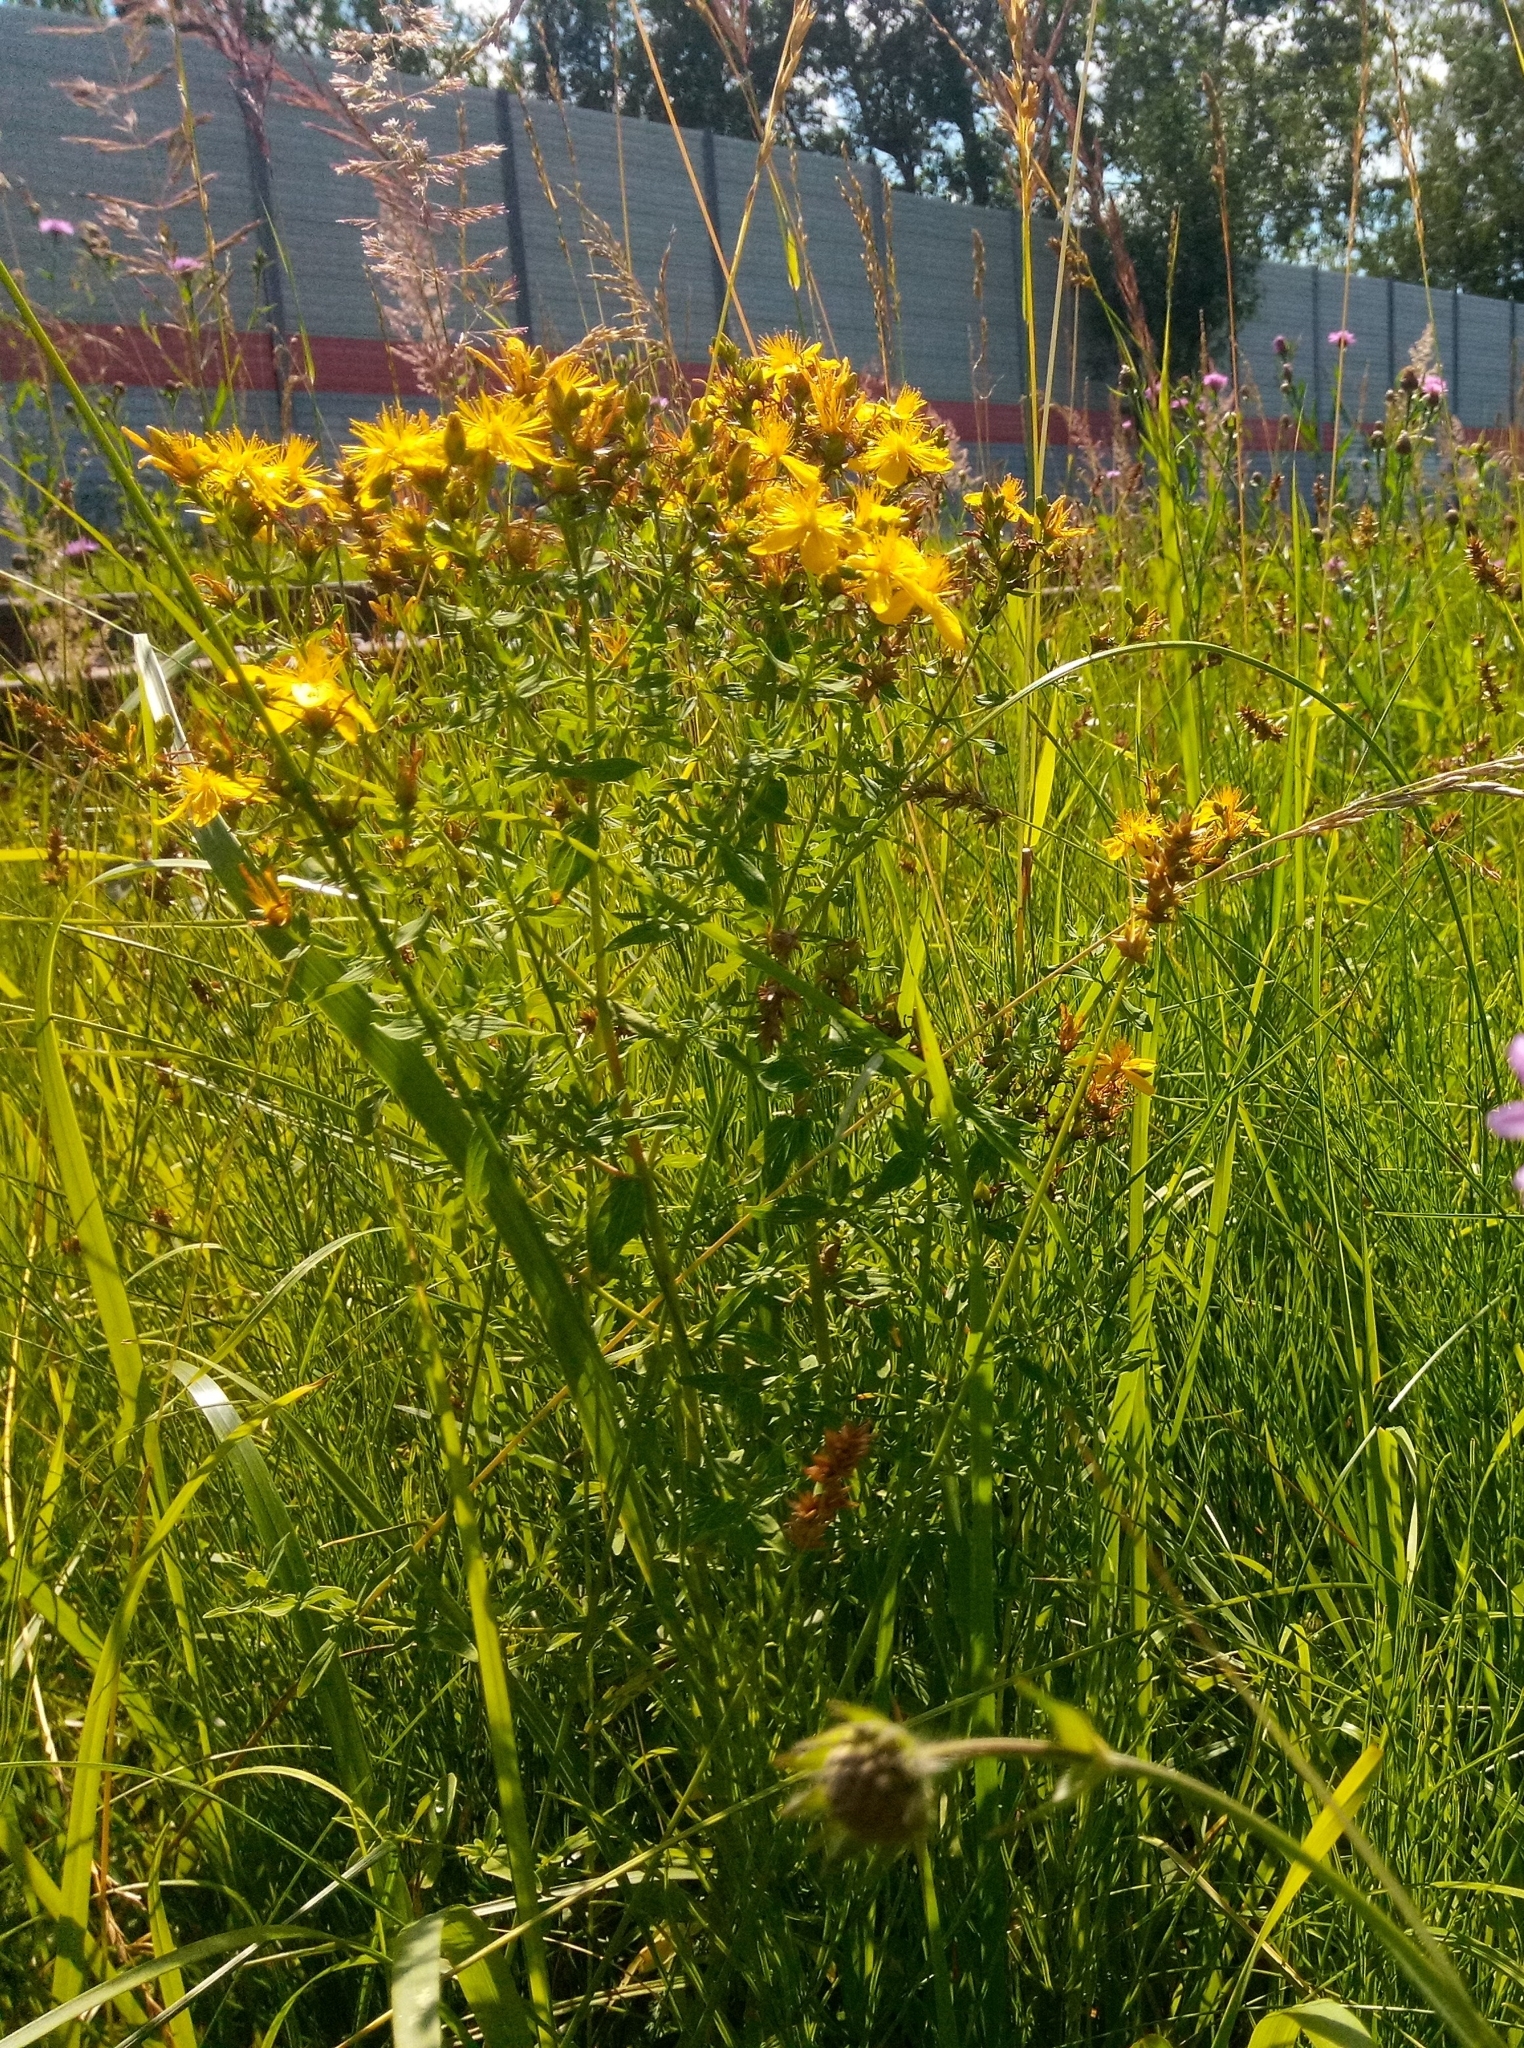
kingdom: Plantae
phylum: Tracheophyta
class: Magnoliopsida
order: Malpighiales
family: Hypericaceae
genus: Hypericum
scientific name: Hypericum perforatum
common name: Common st. johnswort
